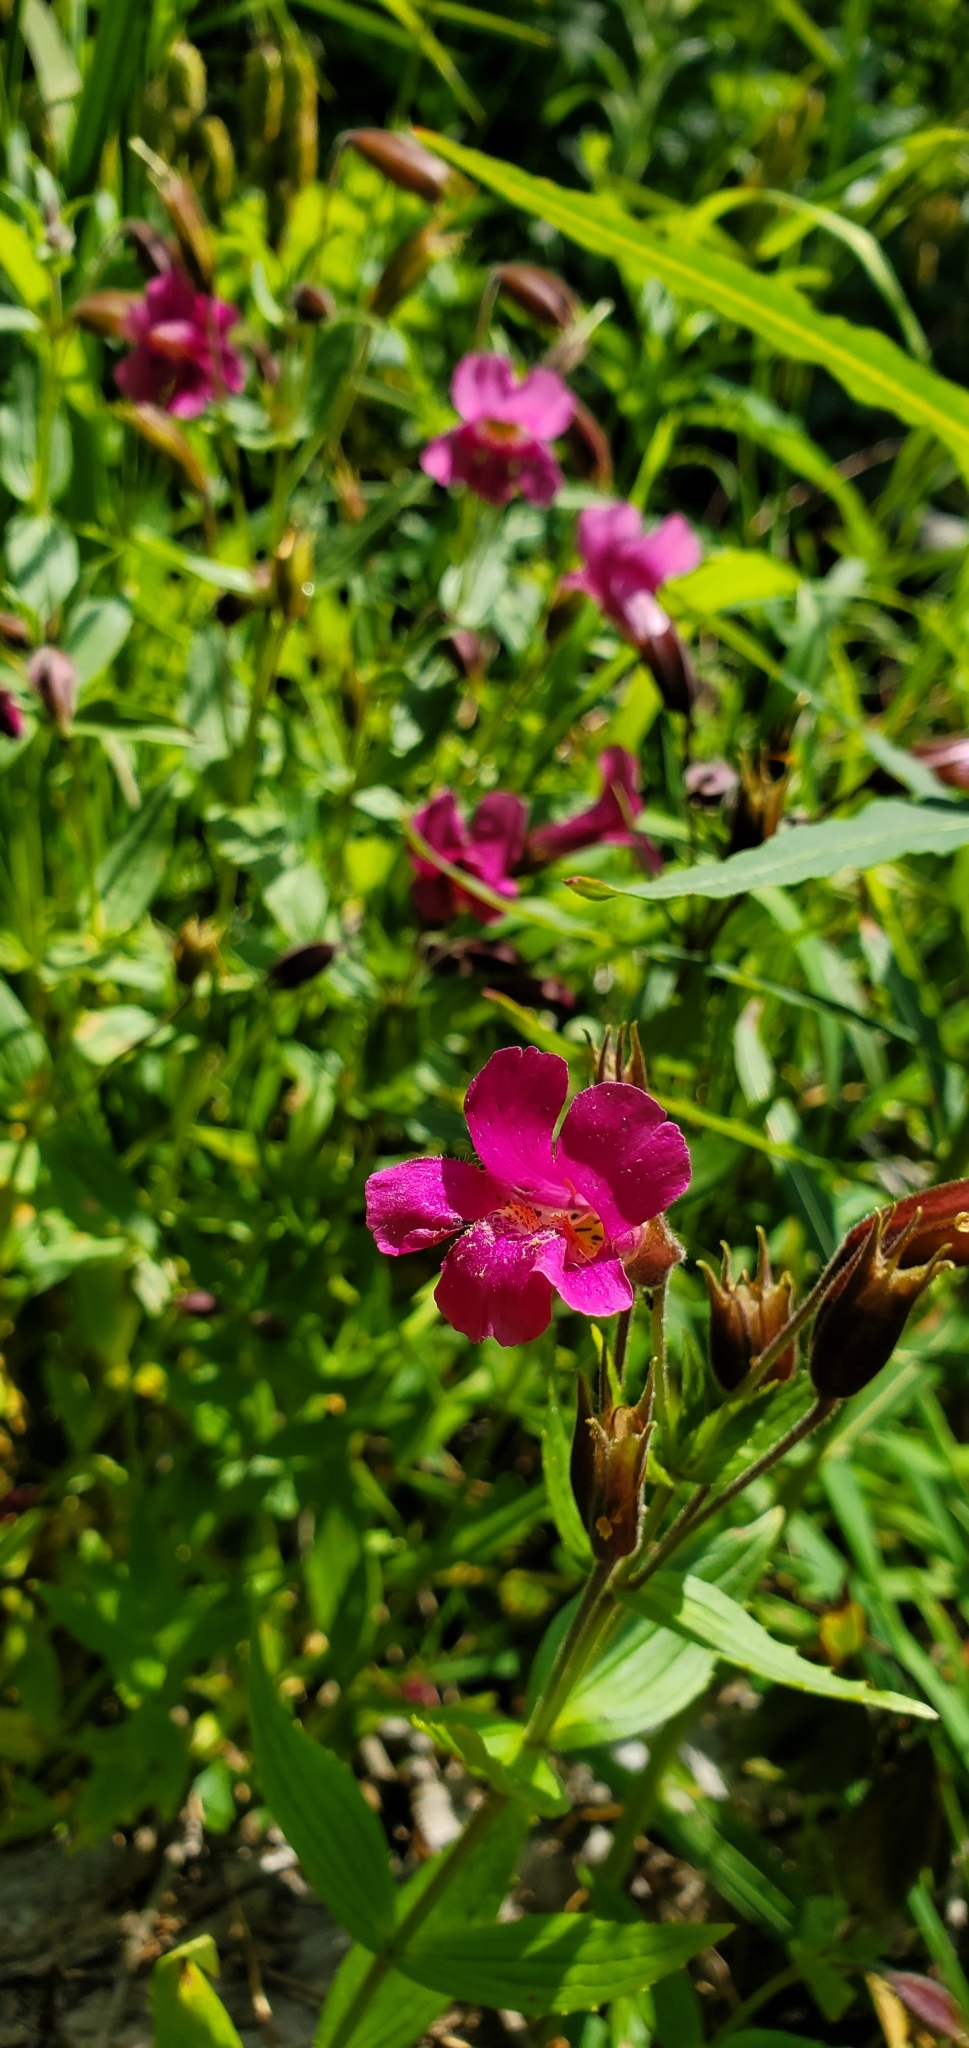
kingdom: Plantae
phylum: Tracheophyta
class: Magnoliopsida
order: Lamiales
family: Phrymaceae
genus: Erythranthe
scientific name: Erythranthe lewisii
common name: Lewis's monkey-flower
